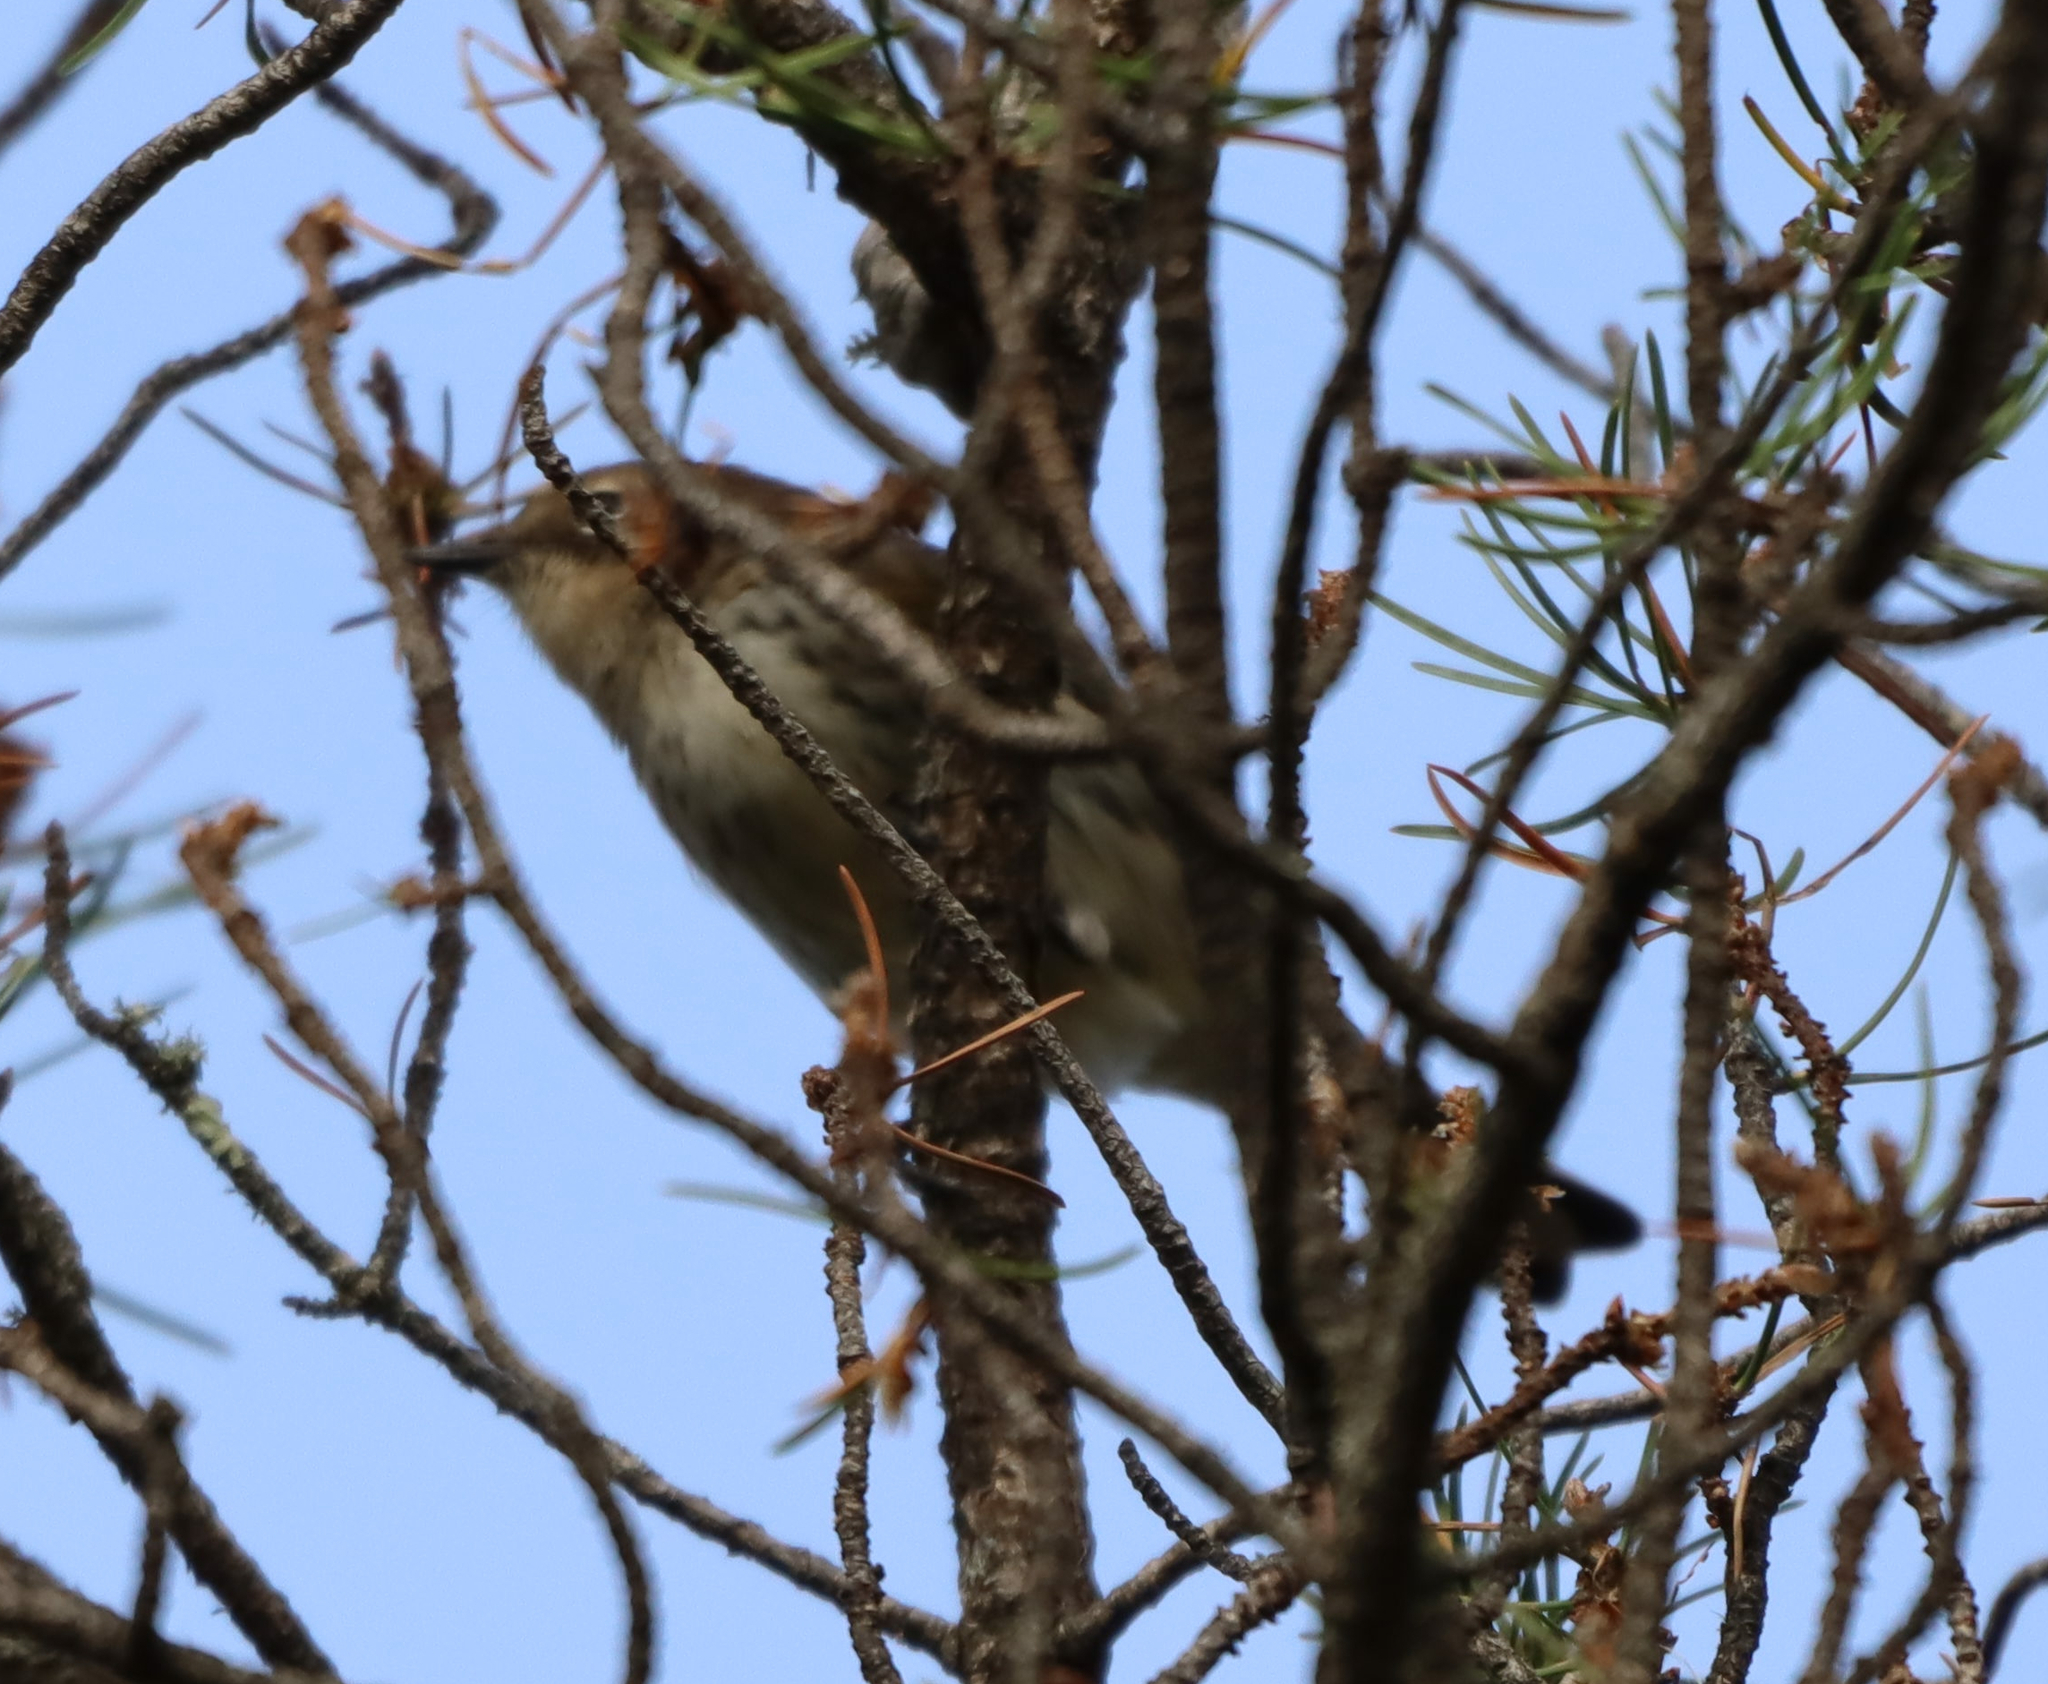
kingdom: Animalia
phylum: Chordata
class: Aves
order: Passeriformes
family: Parulidae
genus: Setophaga
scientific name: Setophaga coronata
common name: Myrtle warbler
